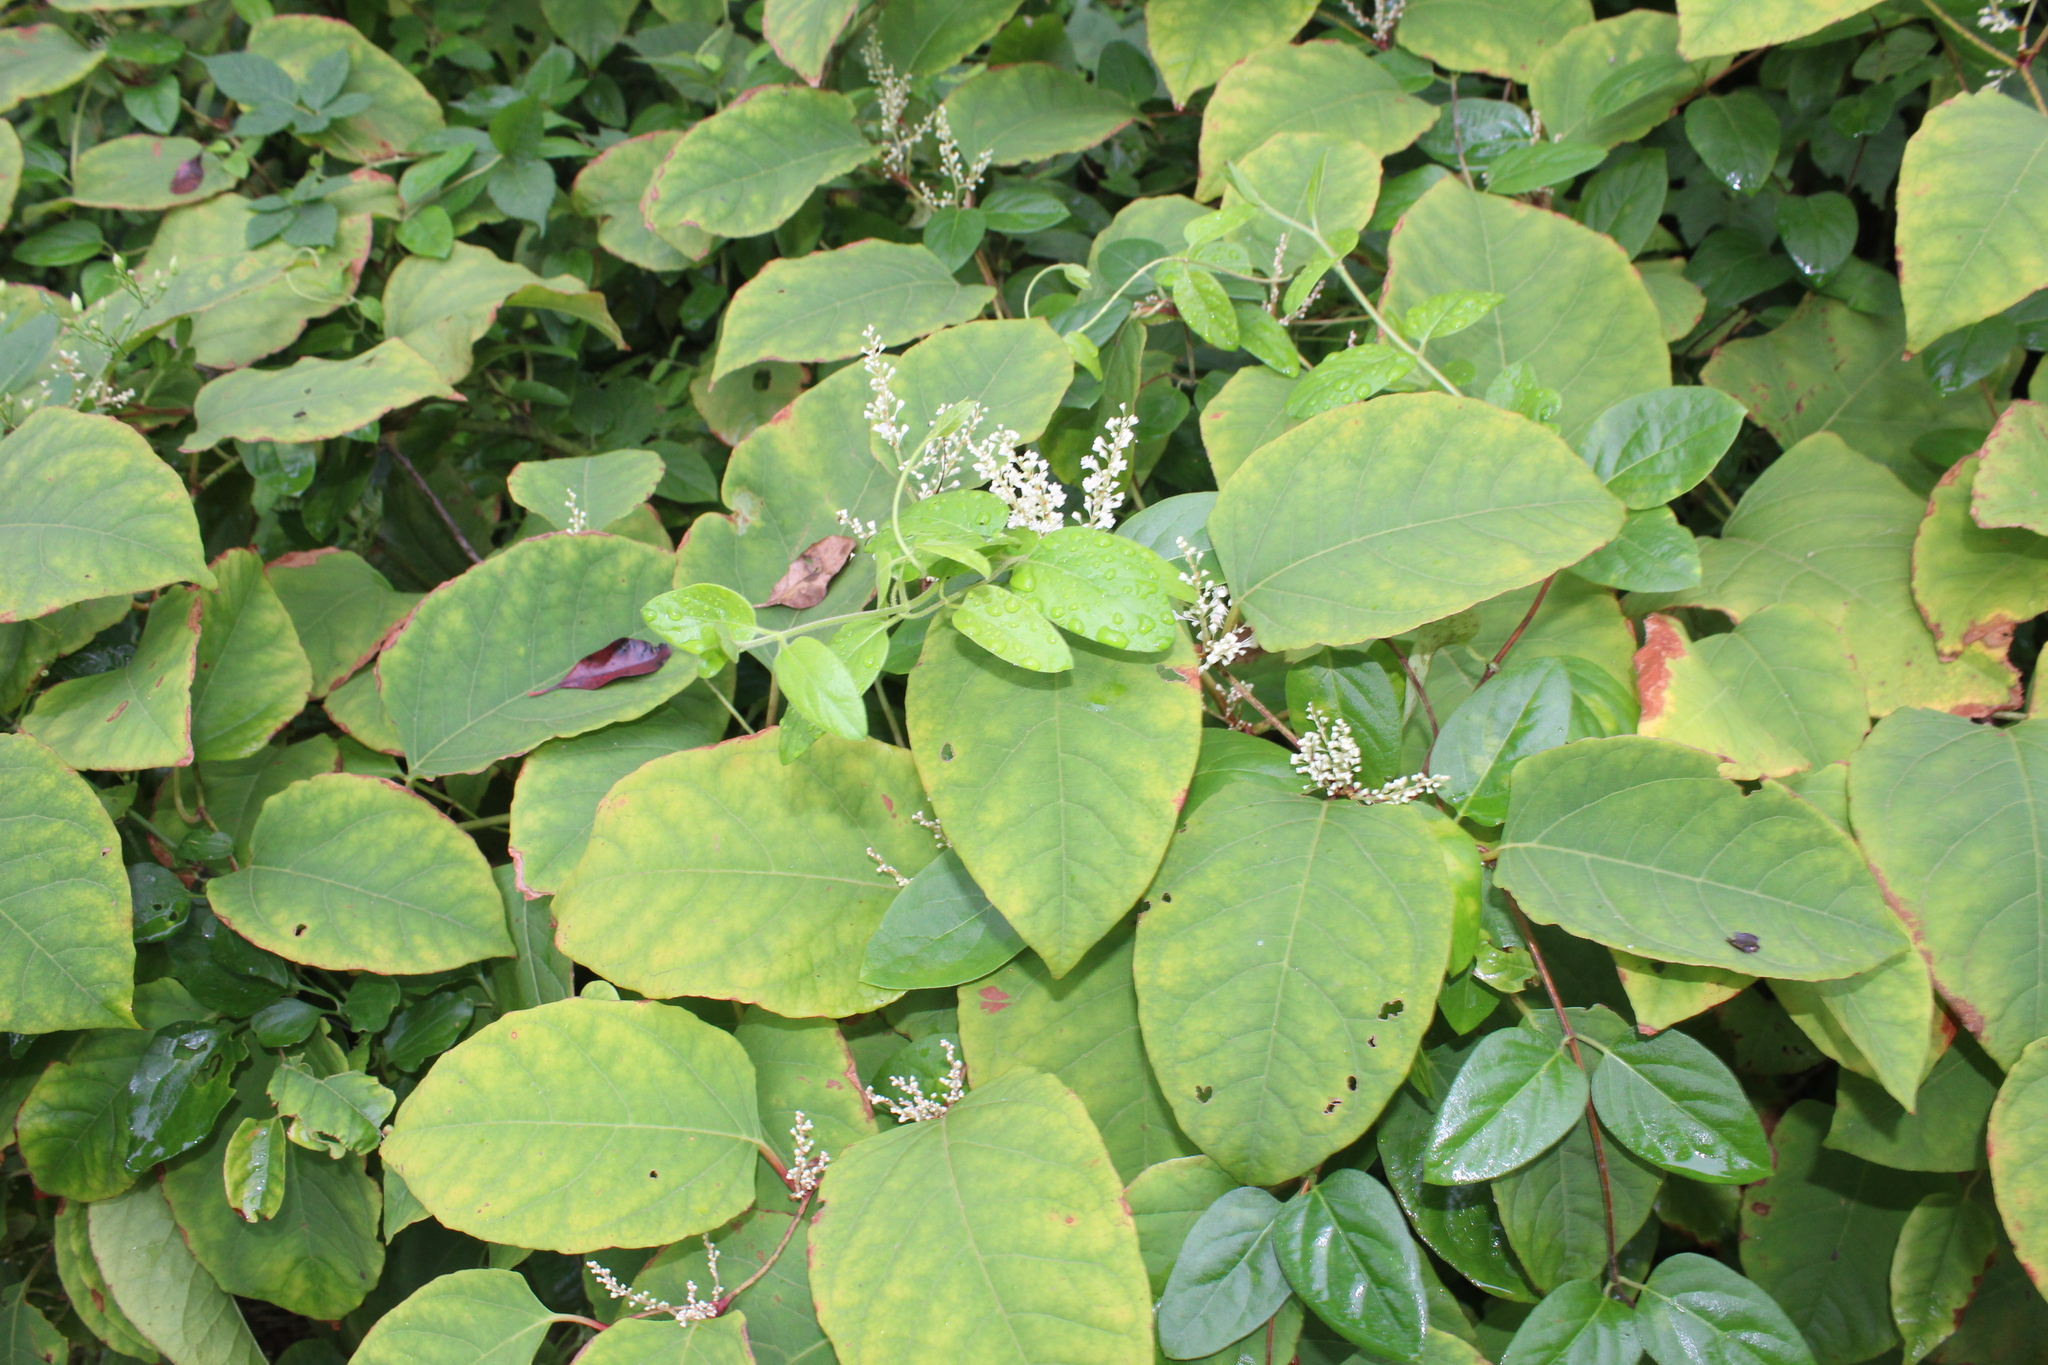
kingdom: Plantae
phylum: Tracheophyta
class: Magnoliopsida
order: Caryophyllales
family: Polygonaceae
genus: Reynoutria
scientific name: Reynoutria japonica
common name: Japanese knotweed
